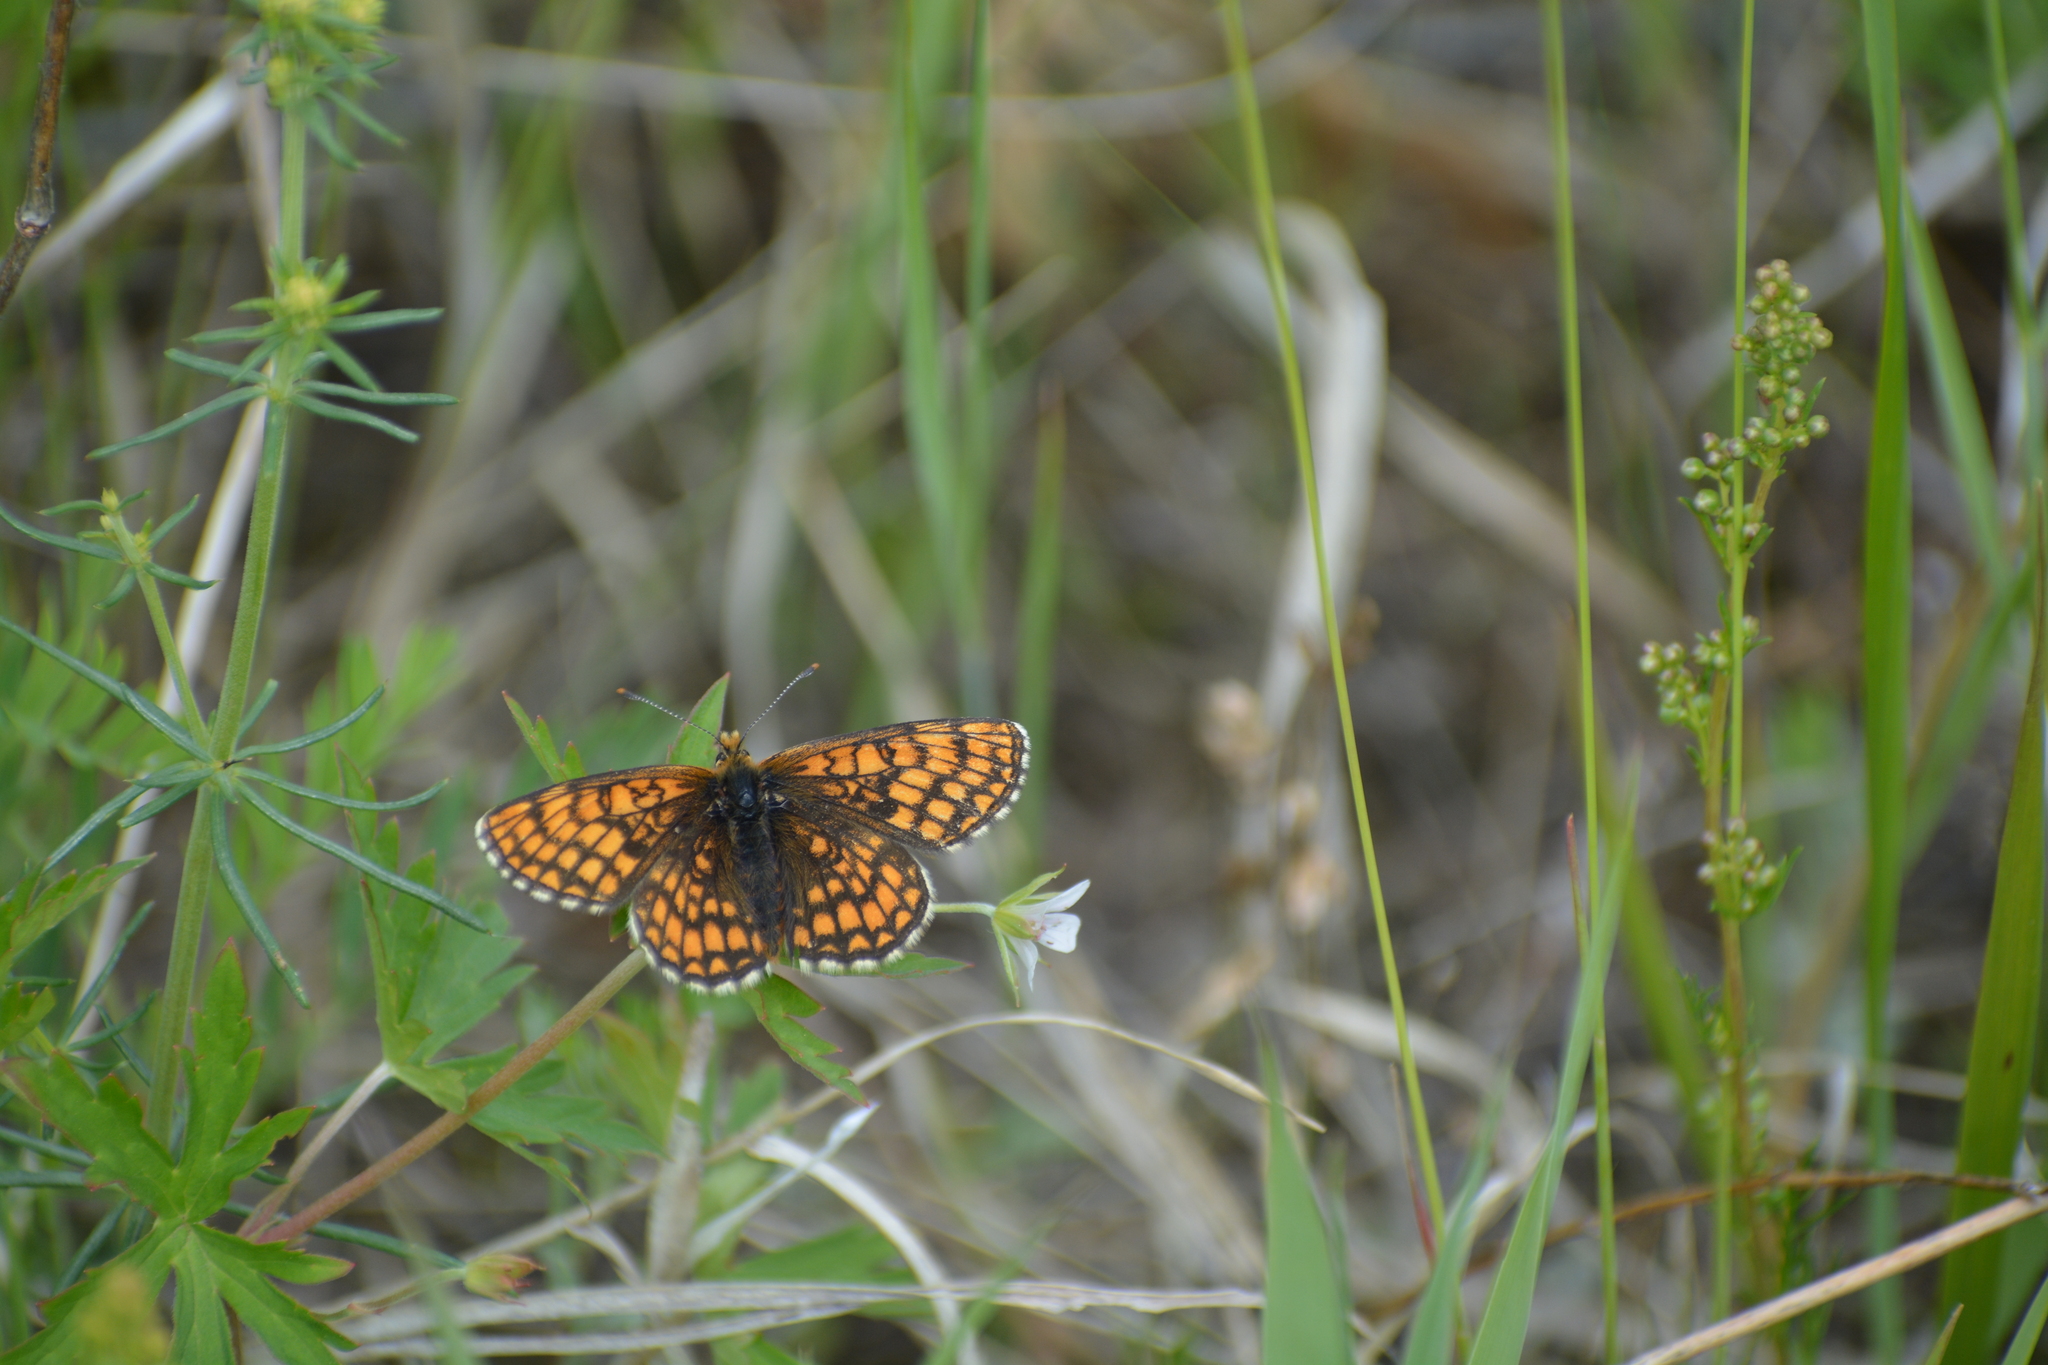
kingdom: Animalia
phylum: Arthropoda
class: Insecta
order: Lepidoptera
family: Nymphalidae
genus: Melitaea
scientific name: Melitaea
